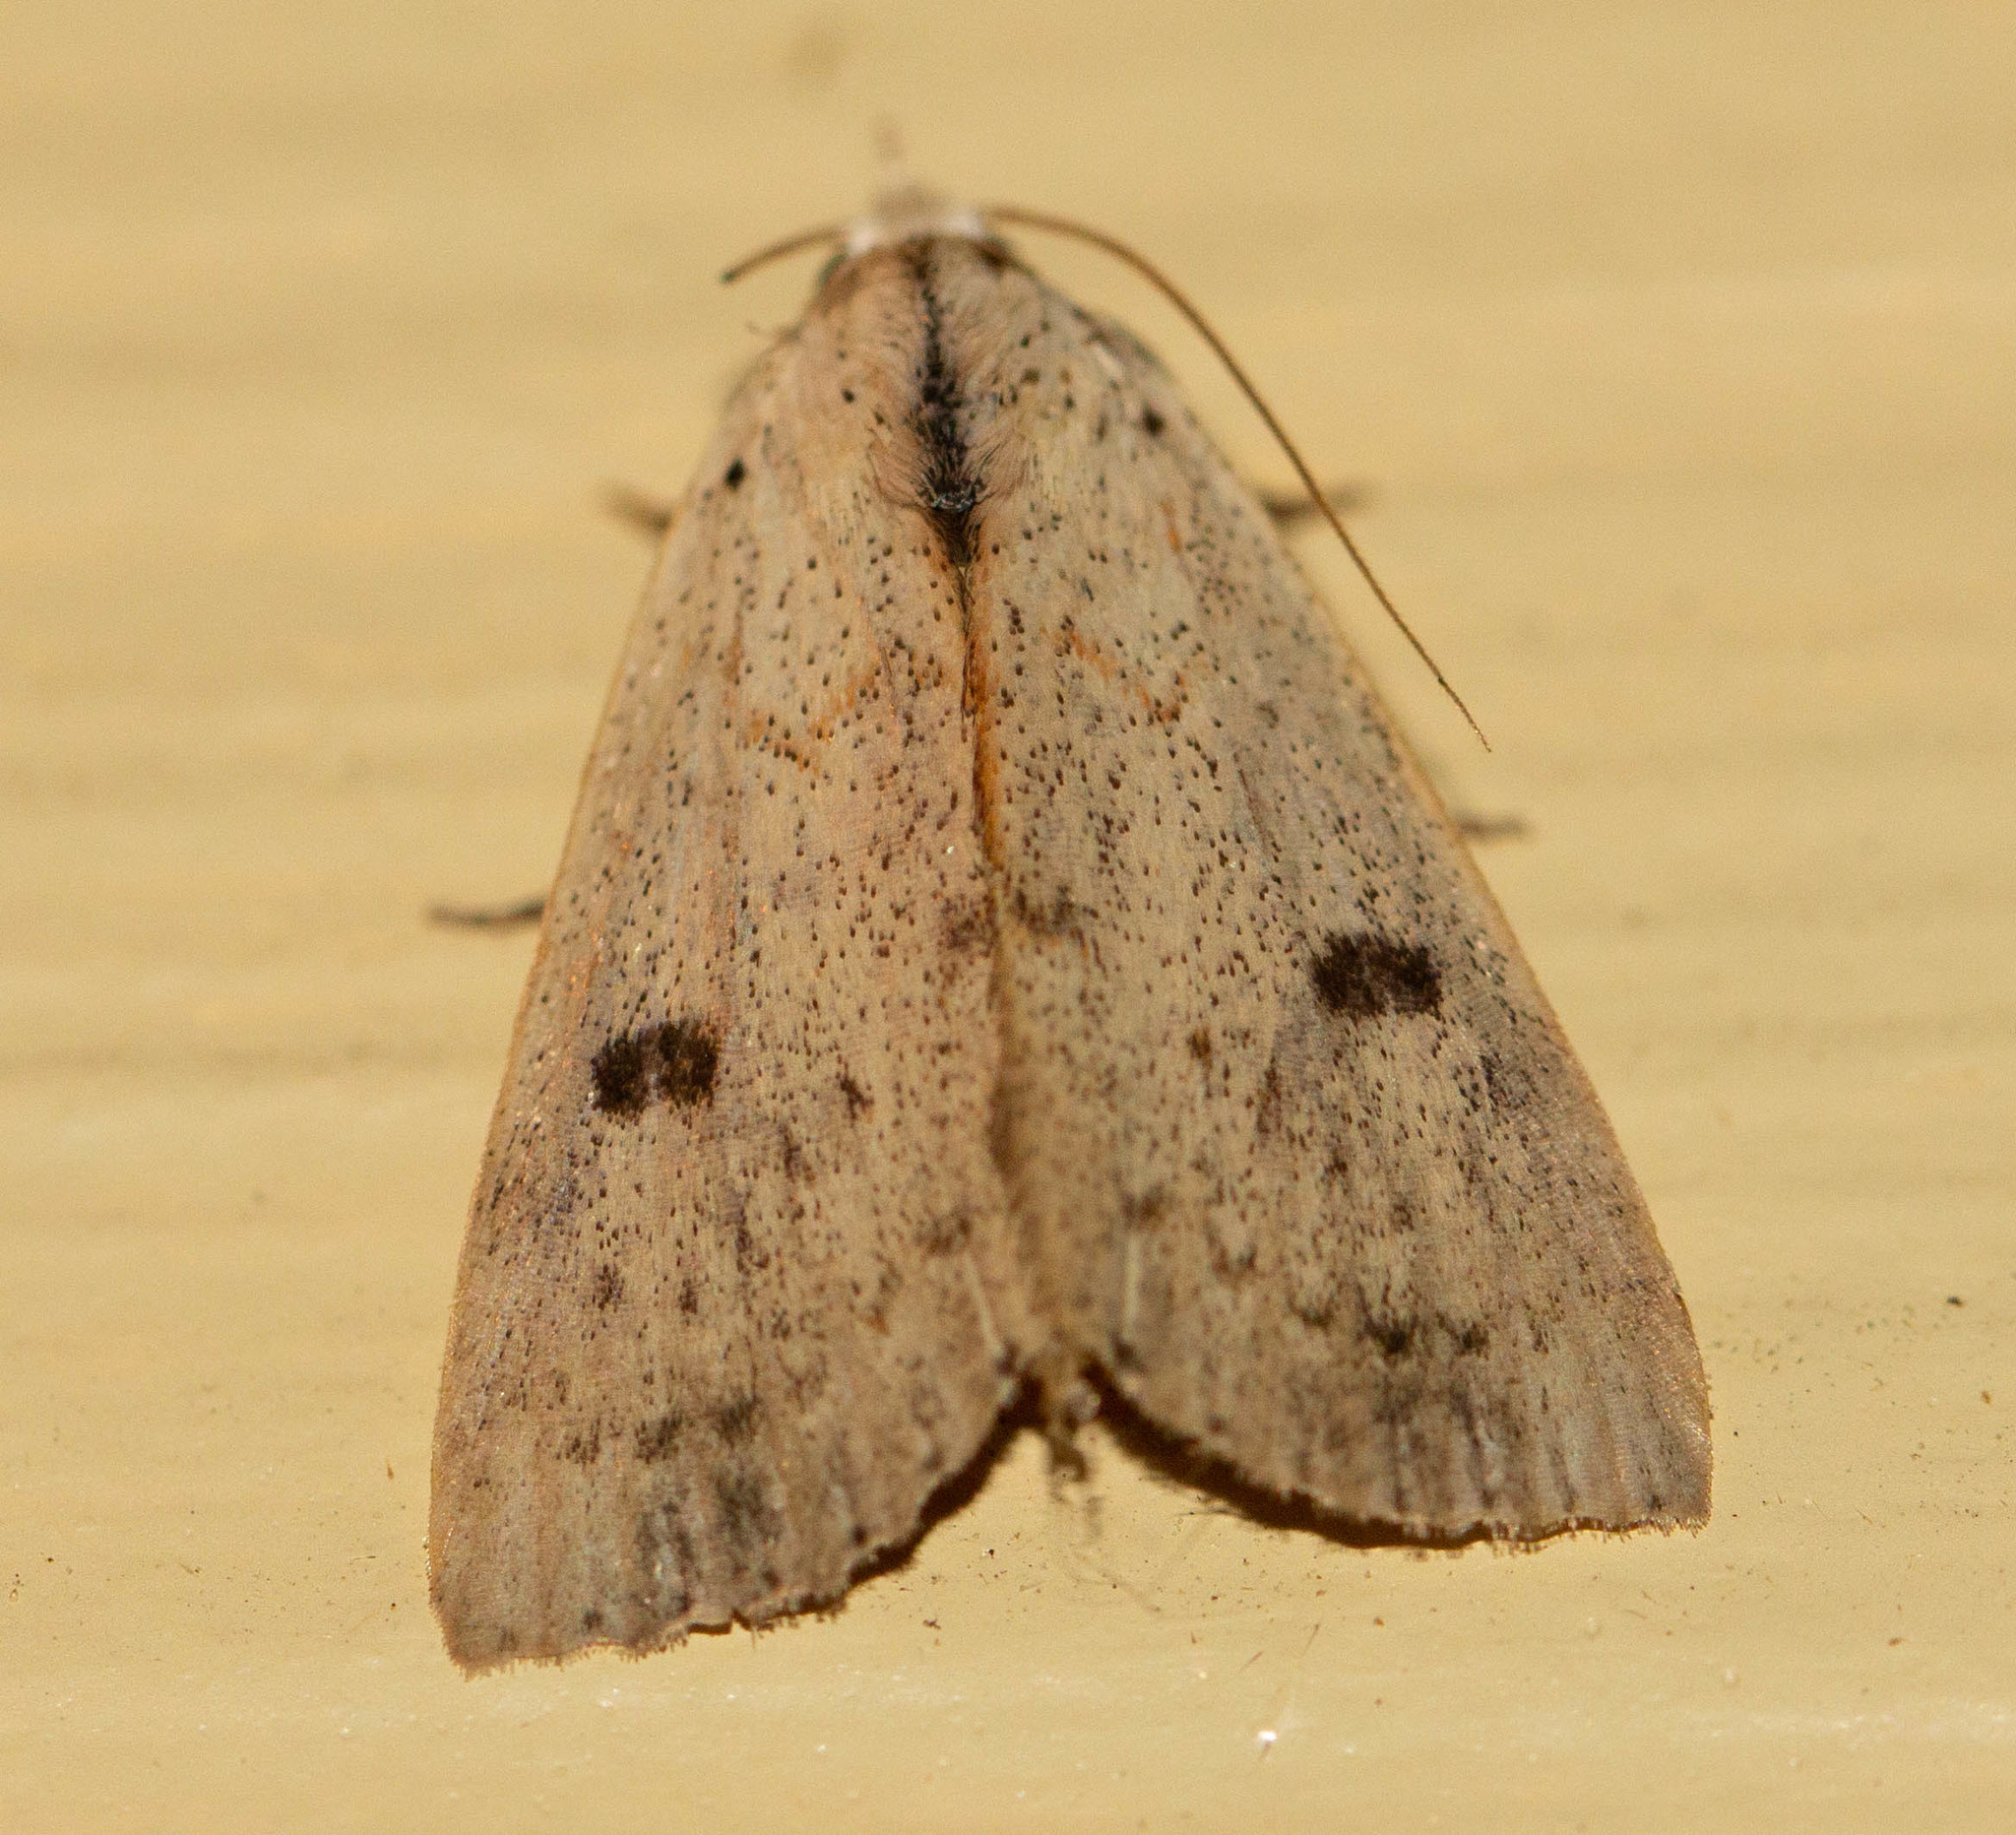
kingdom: Animalia
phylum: Arthropoda
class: Insecta
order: Lepidoptera
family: Erebidae
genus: Scolecocampa
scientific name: Scolecocampa liburna
